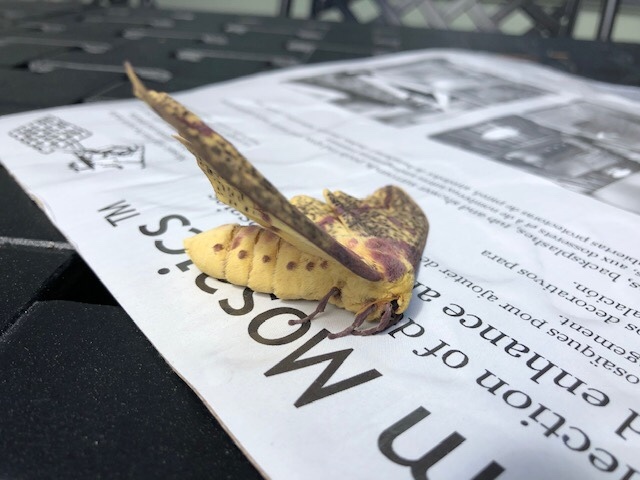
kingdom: Animalia
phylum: Arthropoda
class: Insecta
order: Lepidoptera
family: Saturniidae
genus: Eacles
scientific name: Eacles
